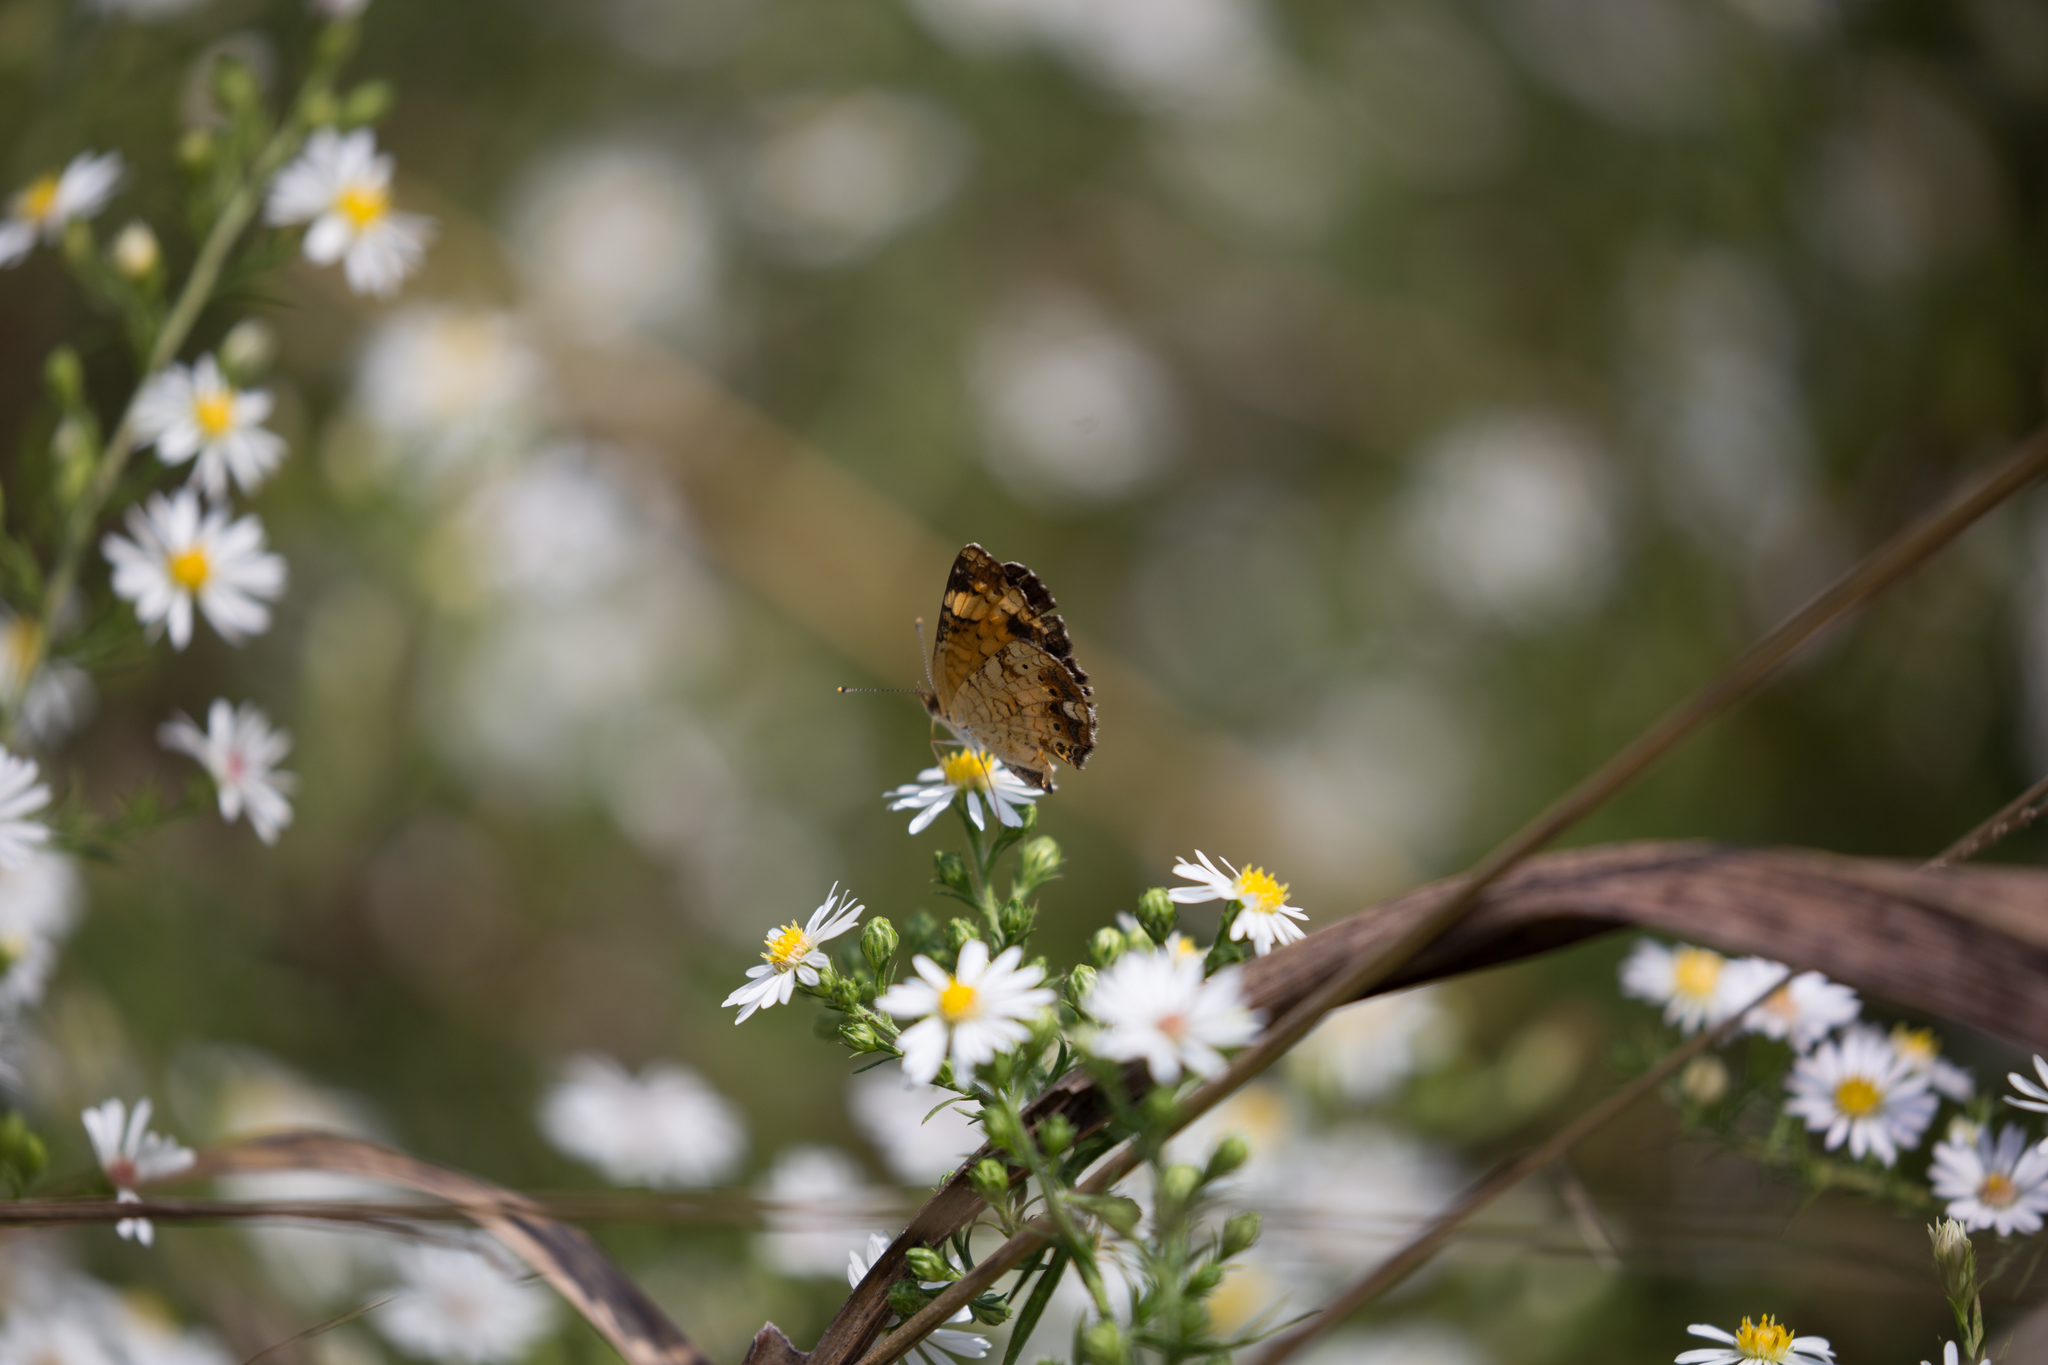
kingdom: Animalia
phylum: Arthropoda
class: Insecta
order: Lepidoptera
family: Nymphalidae
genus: Phyciodes
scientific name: Phyciodes tharos
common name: Pearl crescent
